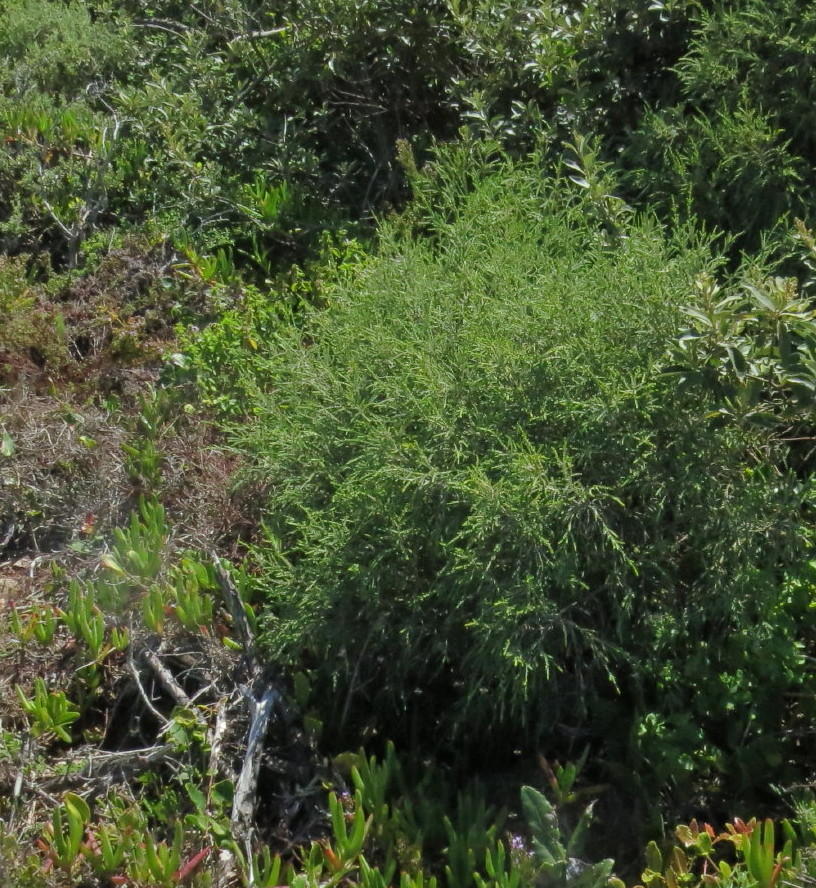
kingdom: Plantae
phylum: Tracheophyta
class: Magnoliopsida
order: Malvales
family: Thymelaeaceae
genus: Passerina
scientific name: Passerina rigida
